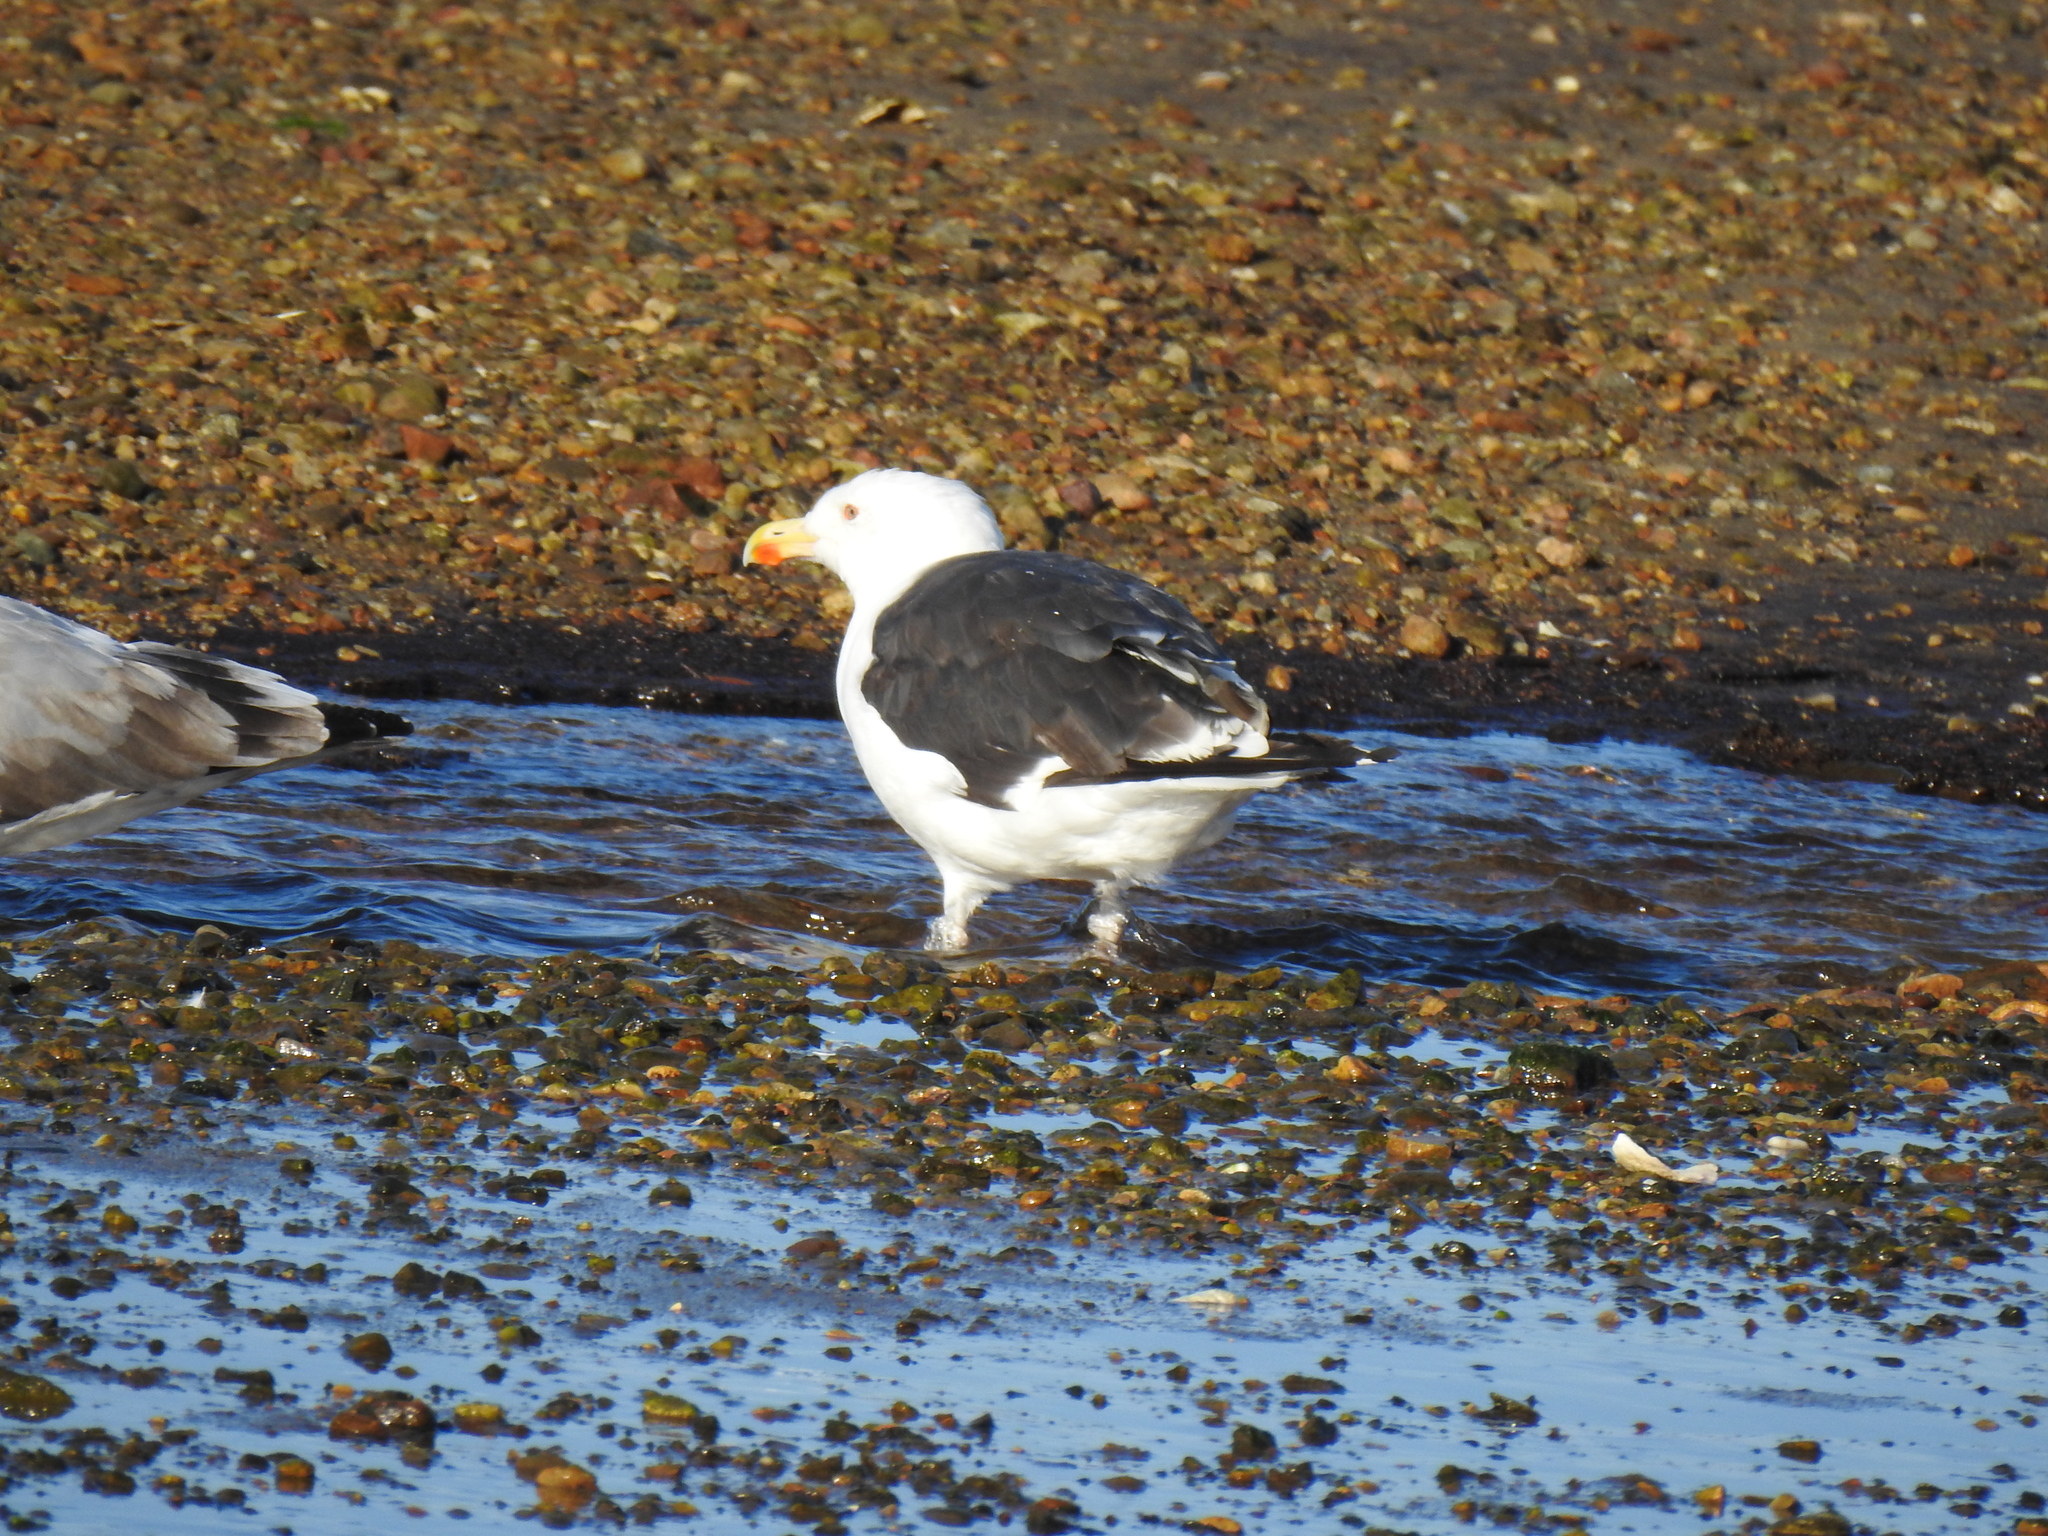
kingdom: Animalia
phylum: Chordata
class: Aves
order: Charadriiformes
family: Laridae
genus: Larus
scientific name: Larus marinus
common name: Great black-backed gull
